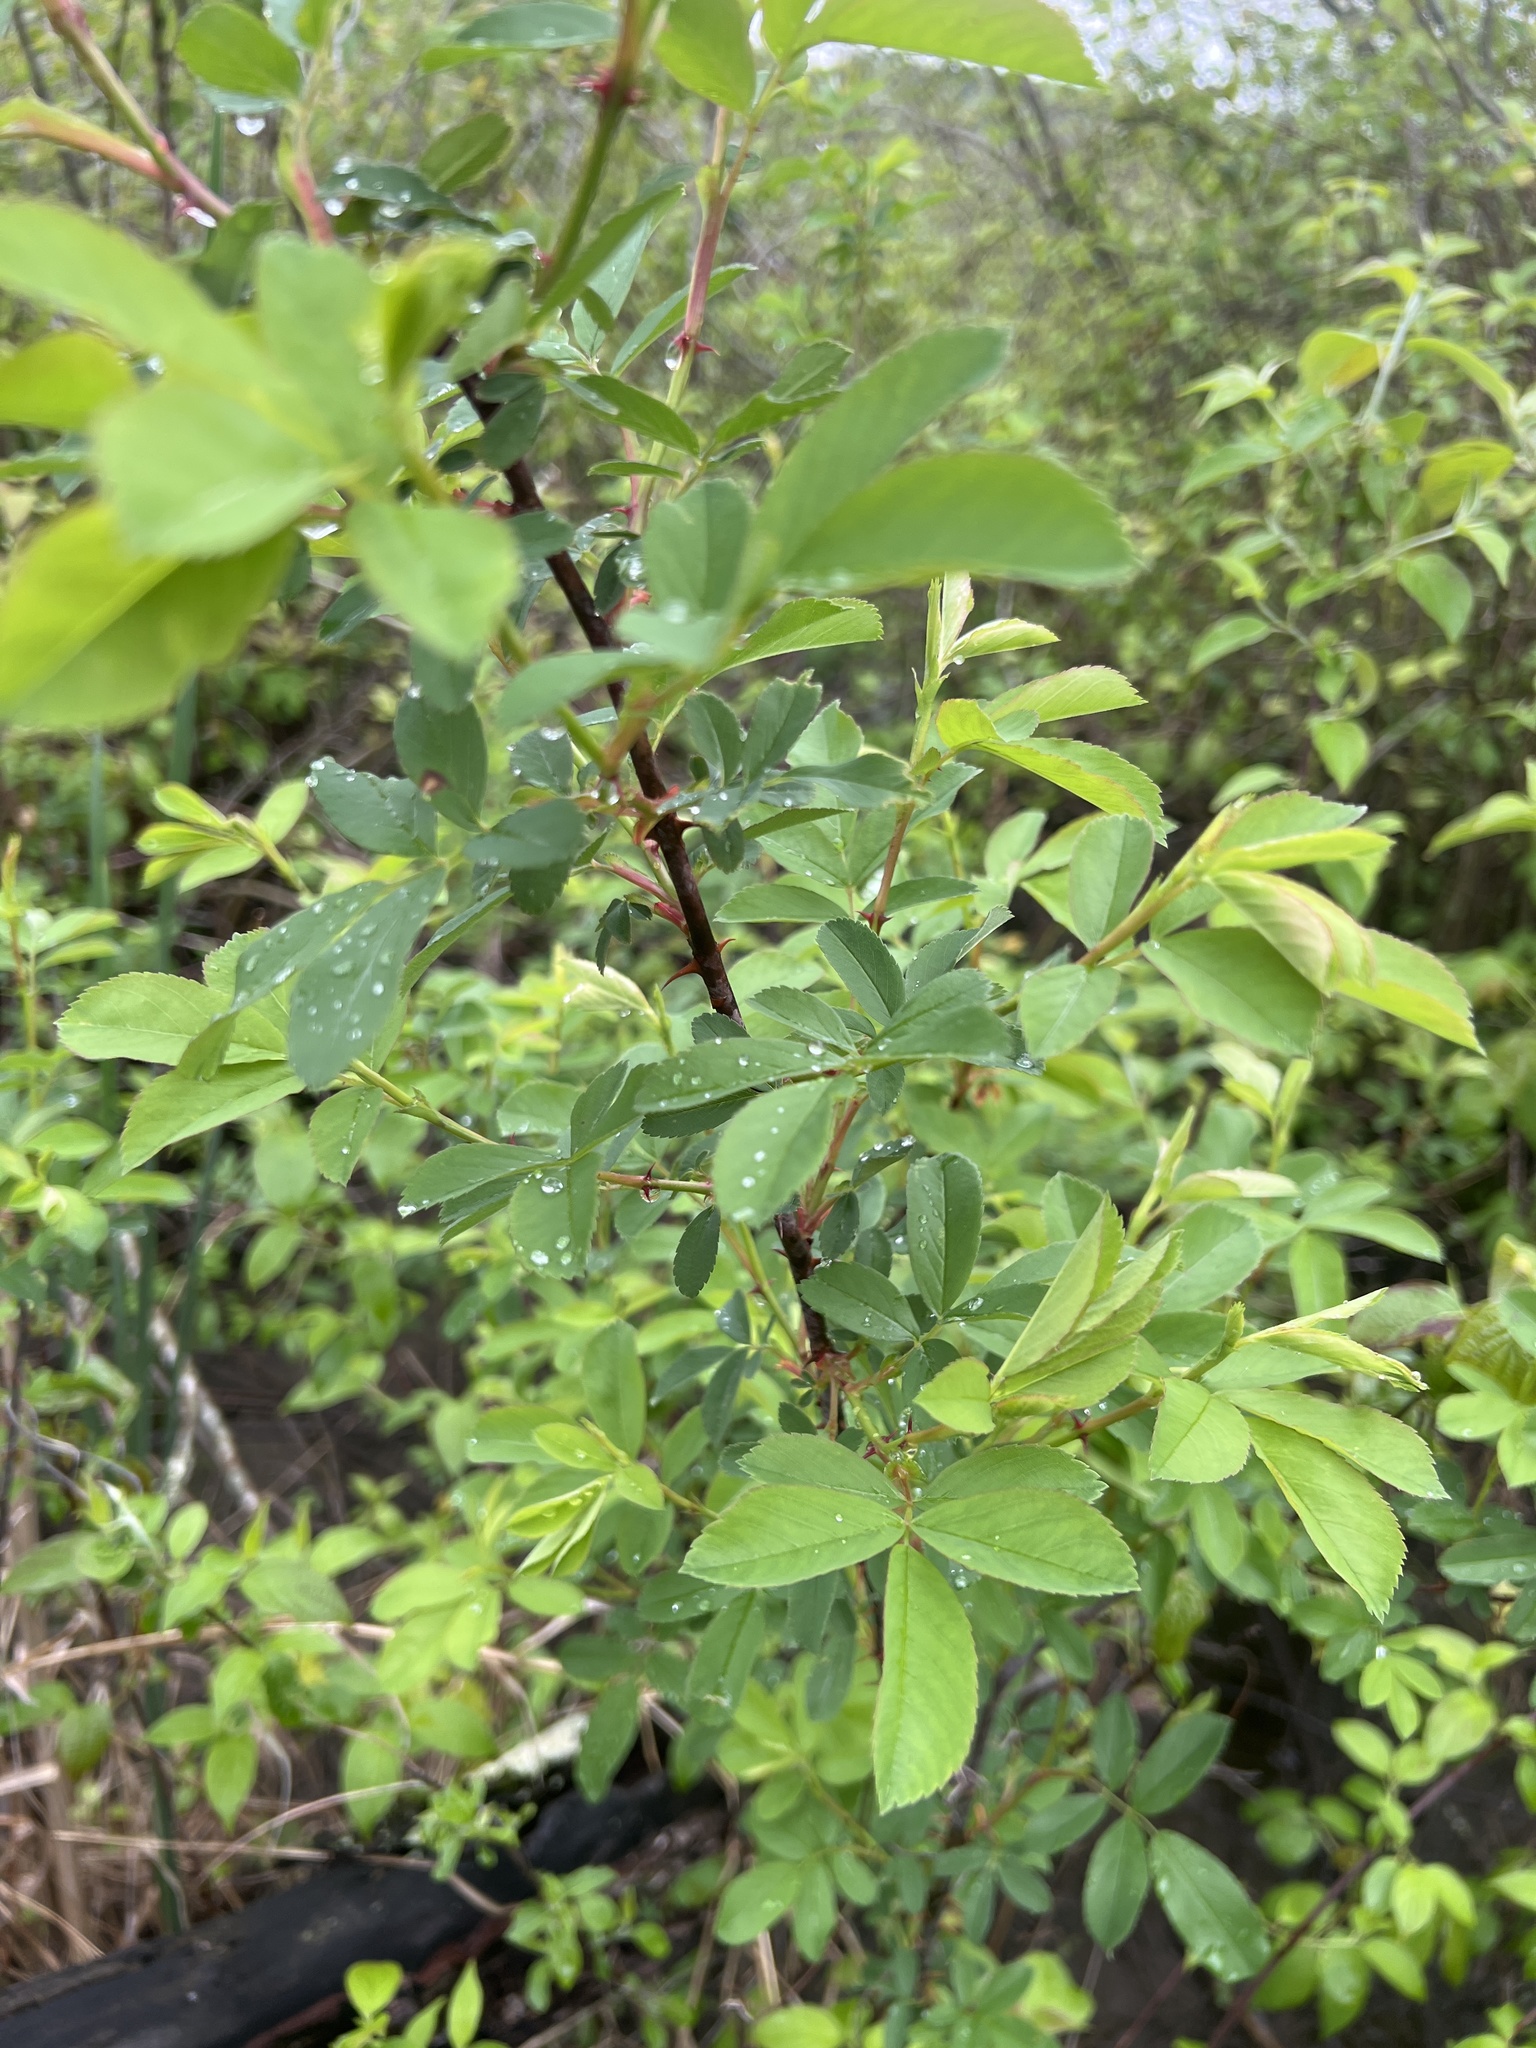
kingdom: Plantae
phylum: Tracheophyta
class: Magnoliopsida
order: Rosales
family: Rosaceae
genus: Rosa
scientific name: Rosa palustris
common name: Swamp rose
